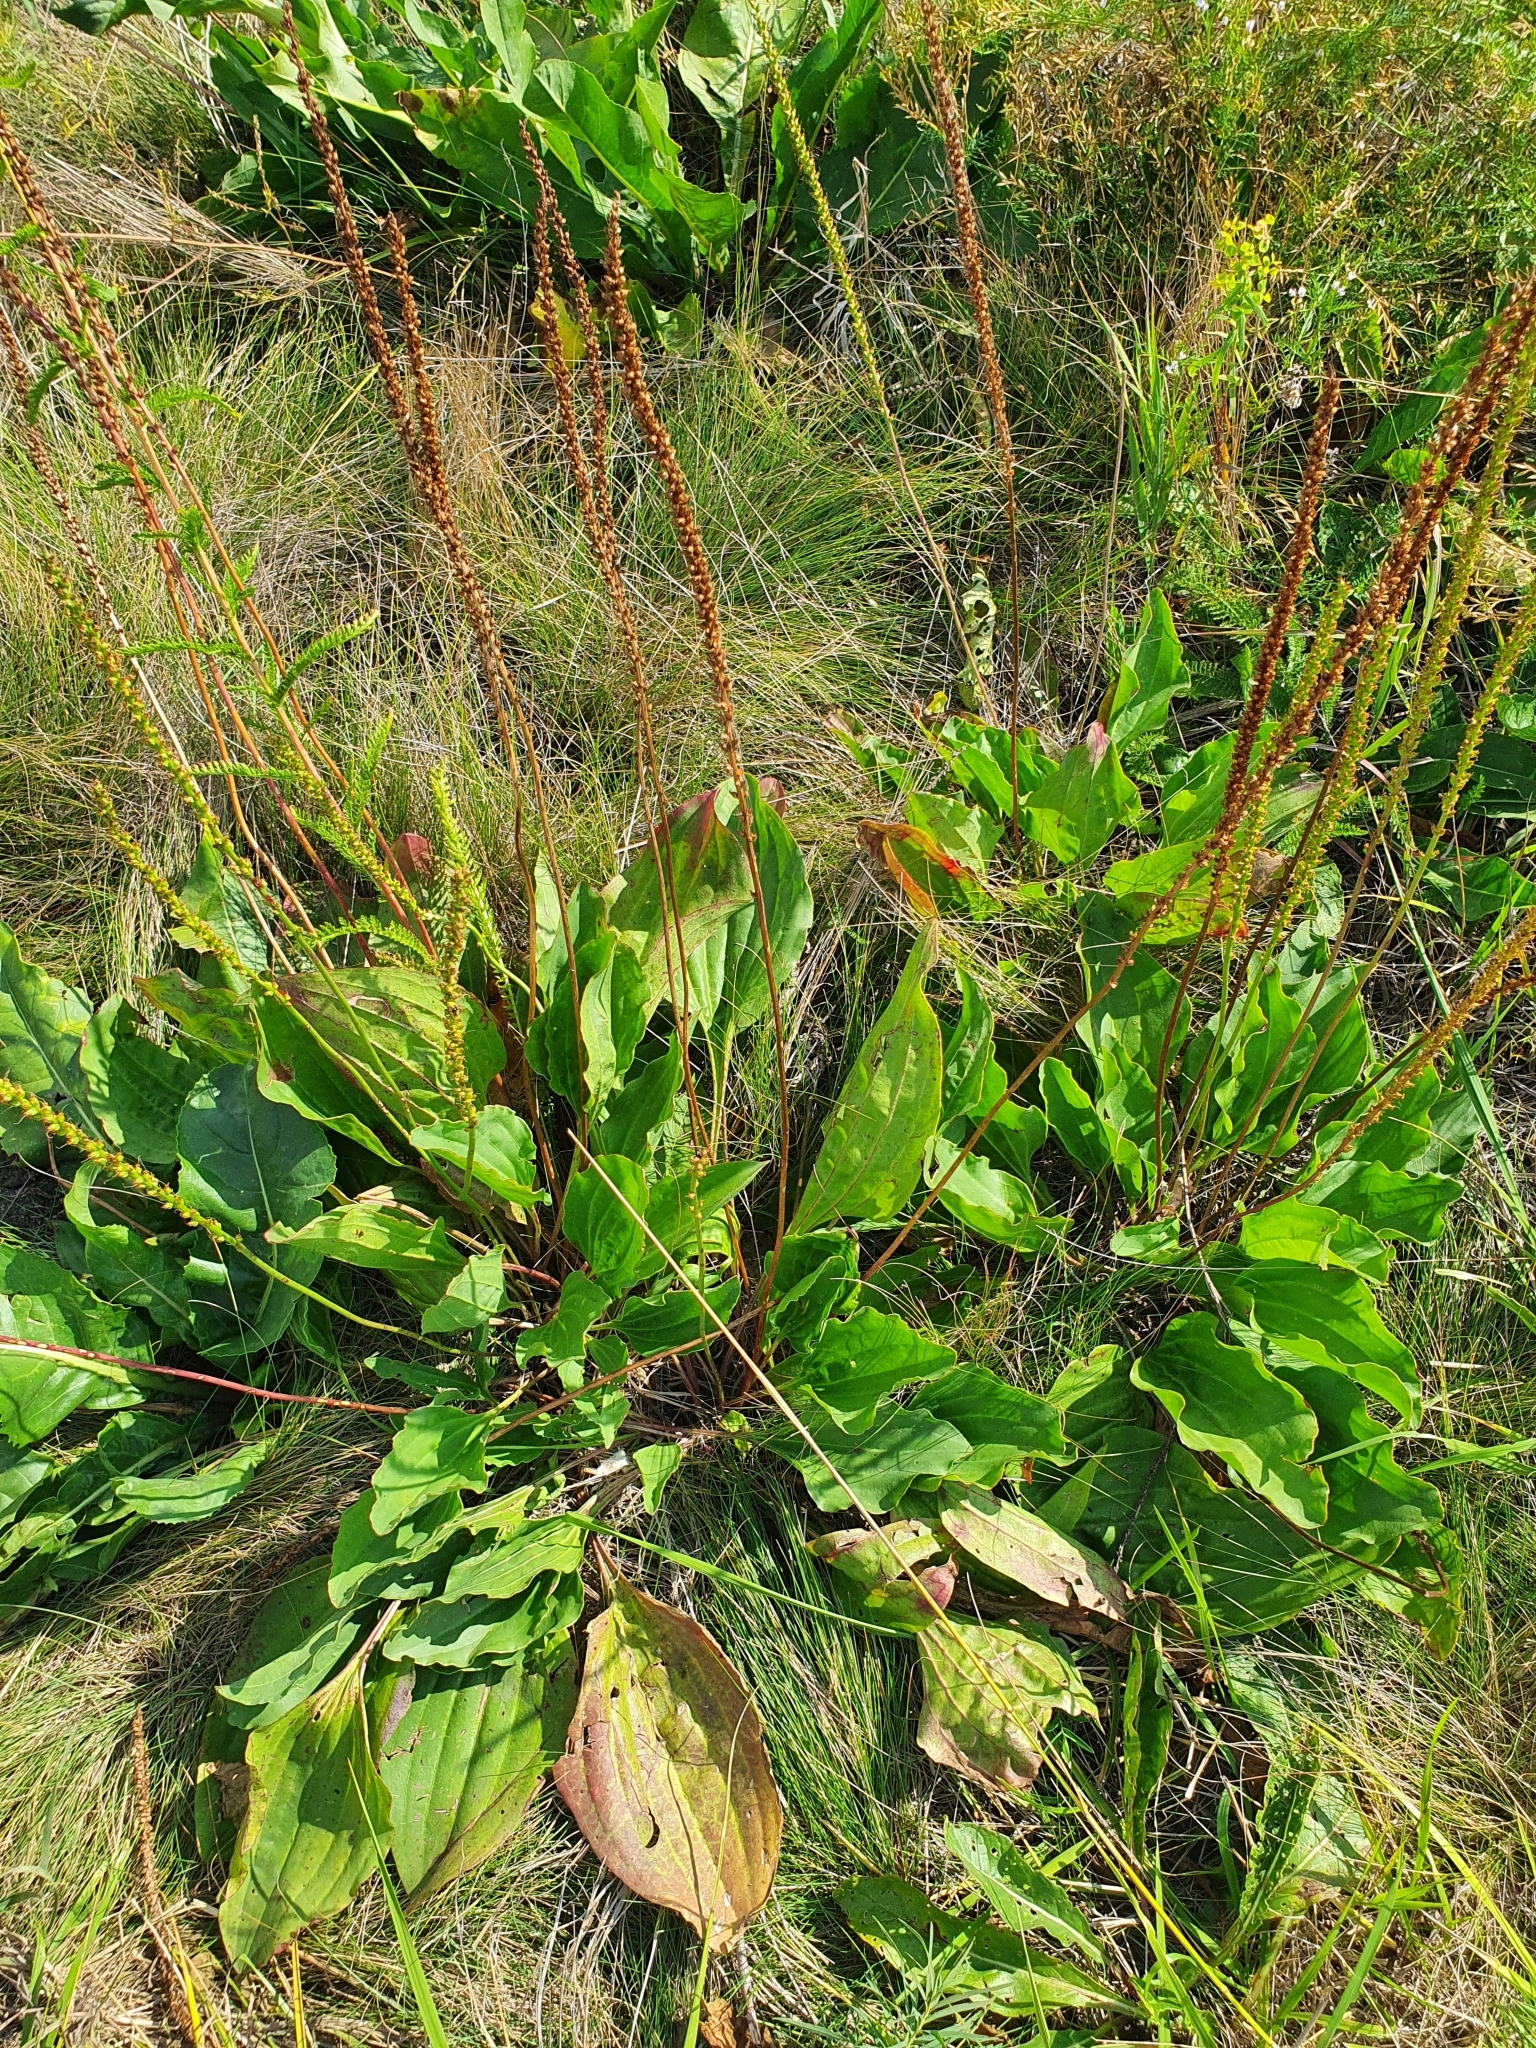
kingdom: Plantae
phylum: Tracheophyta
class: Magnoliopsida
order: Lamiales
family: Plantaginaceae
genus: Plantago
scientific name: Plantago cornuti
